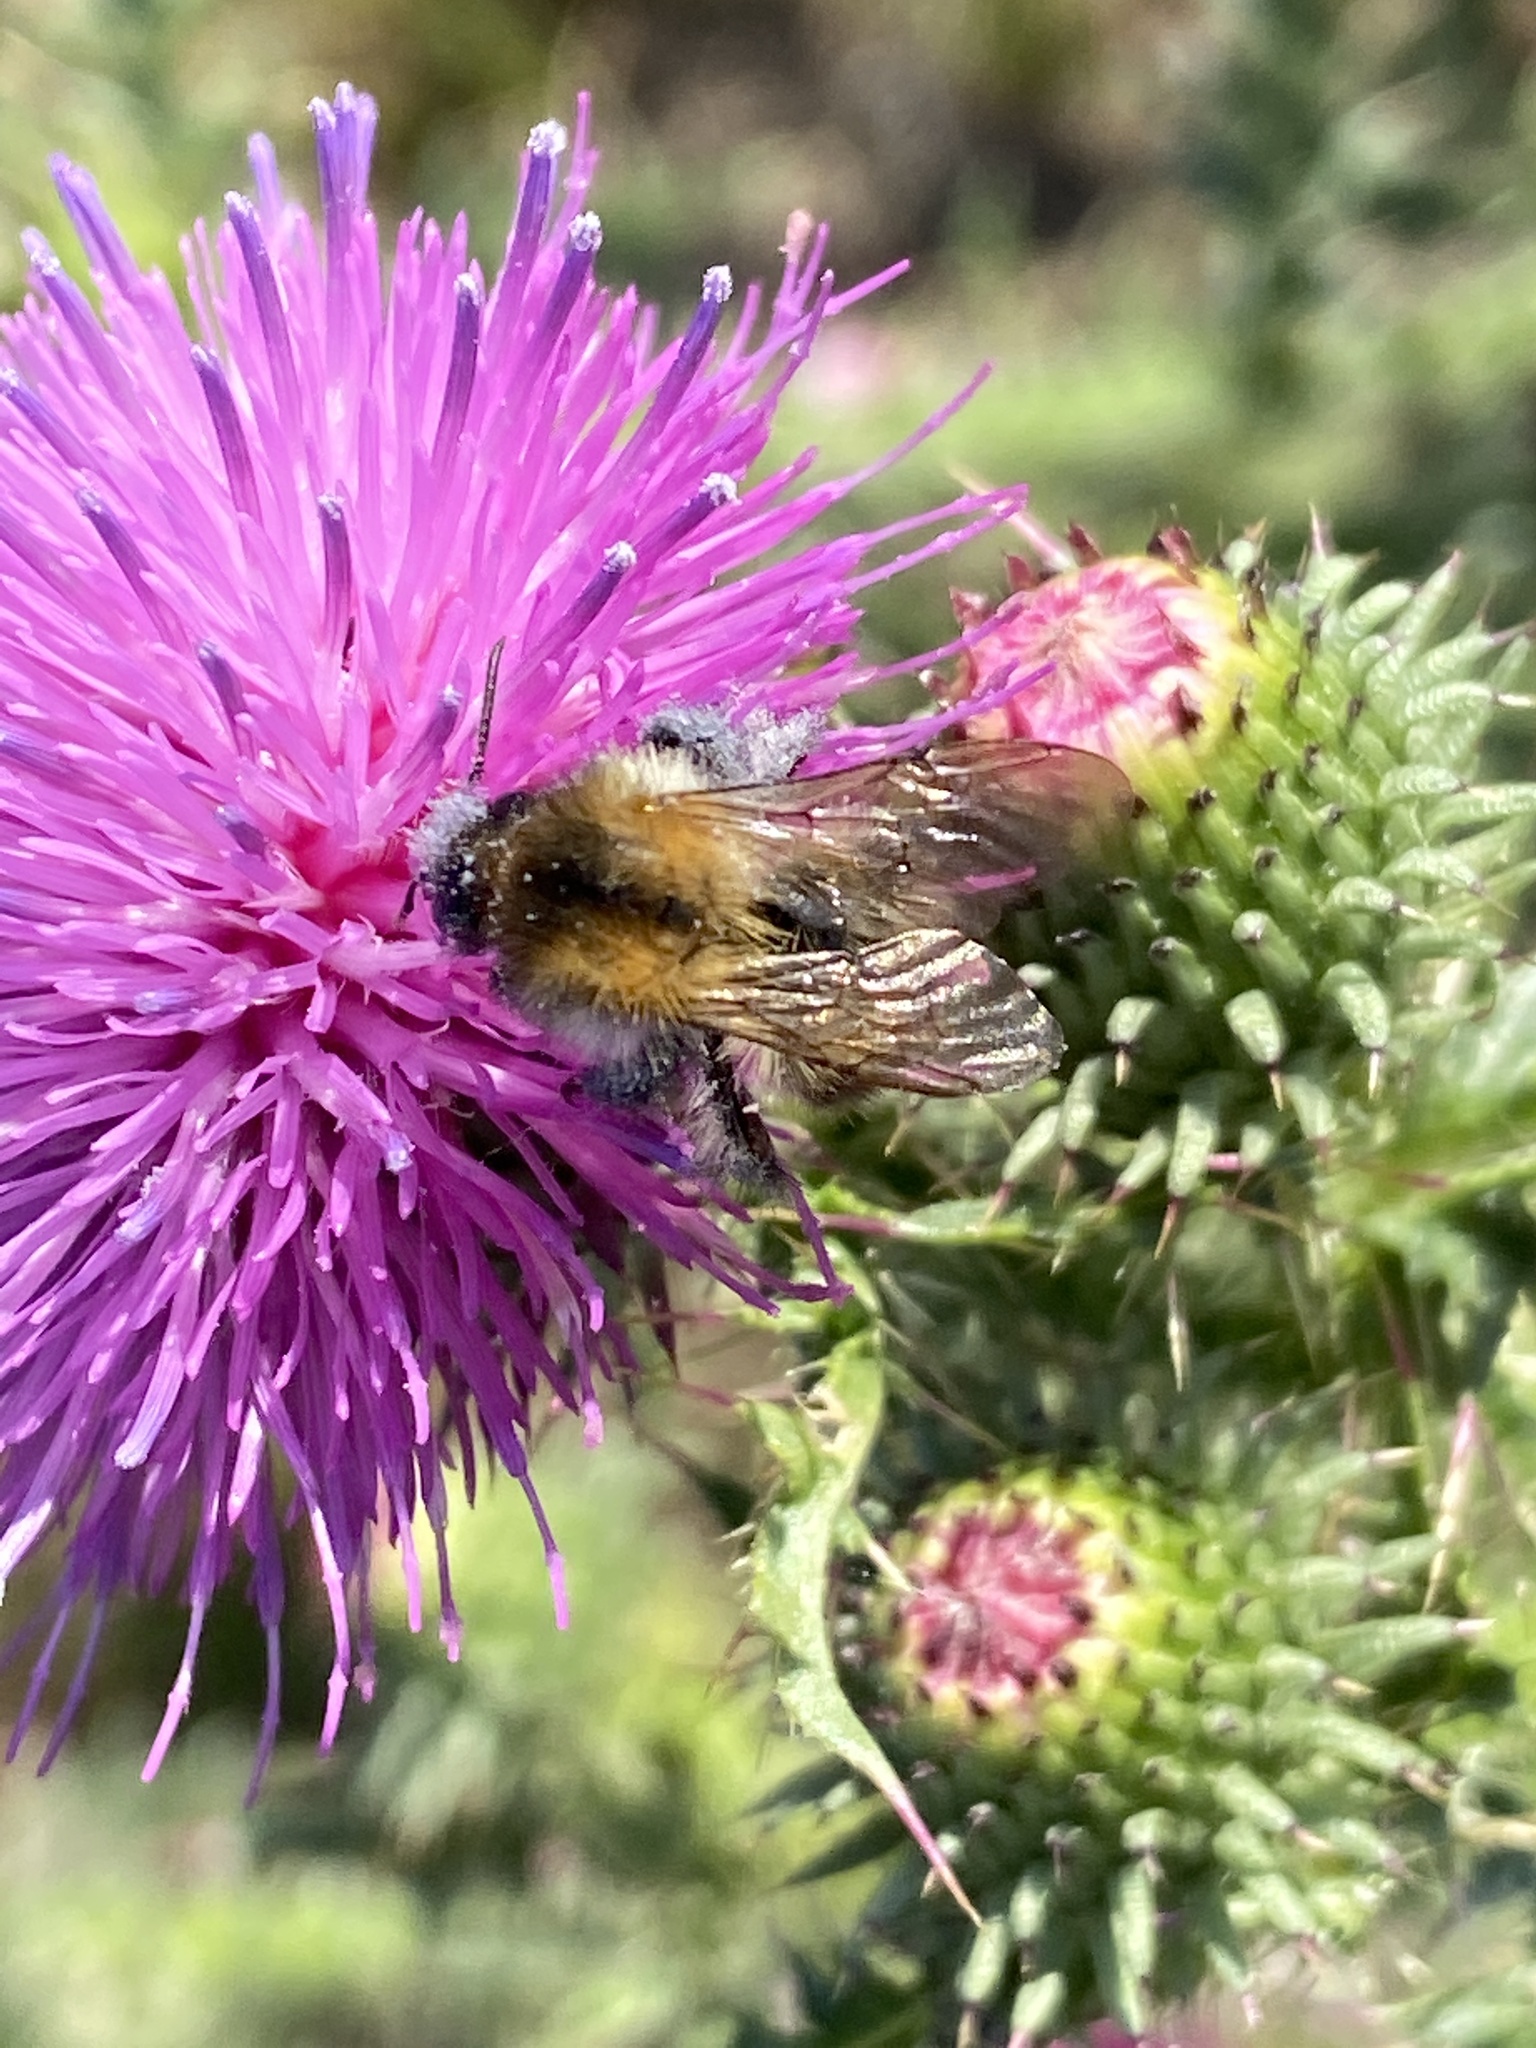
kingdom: Animalia
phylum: Arthropoda
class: Insecta
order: Hymenoptera
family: Apidae
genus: Bombus
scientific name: Bombus pascuorum
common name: Common carder bee
